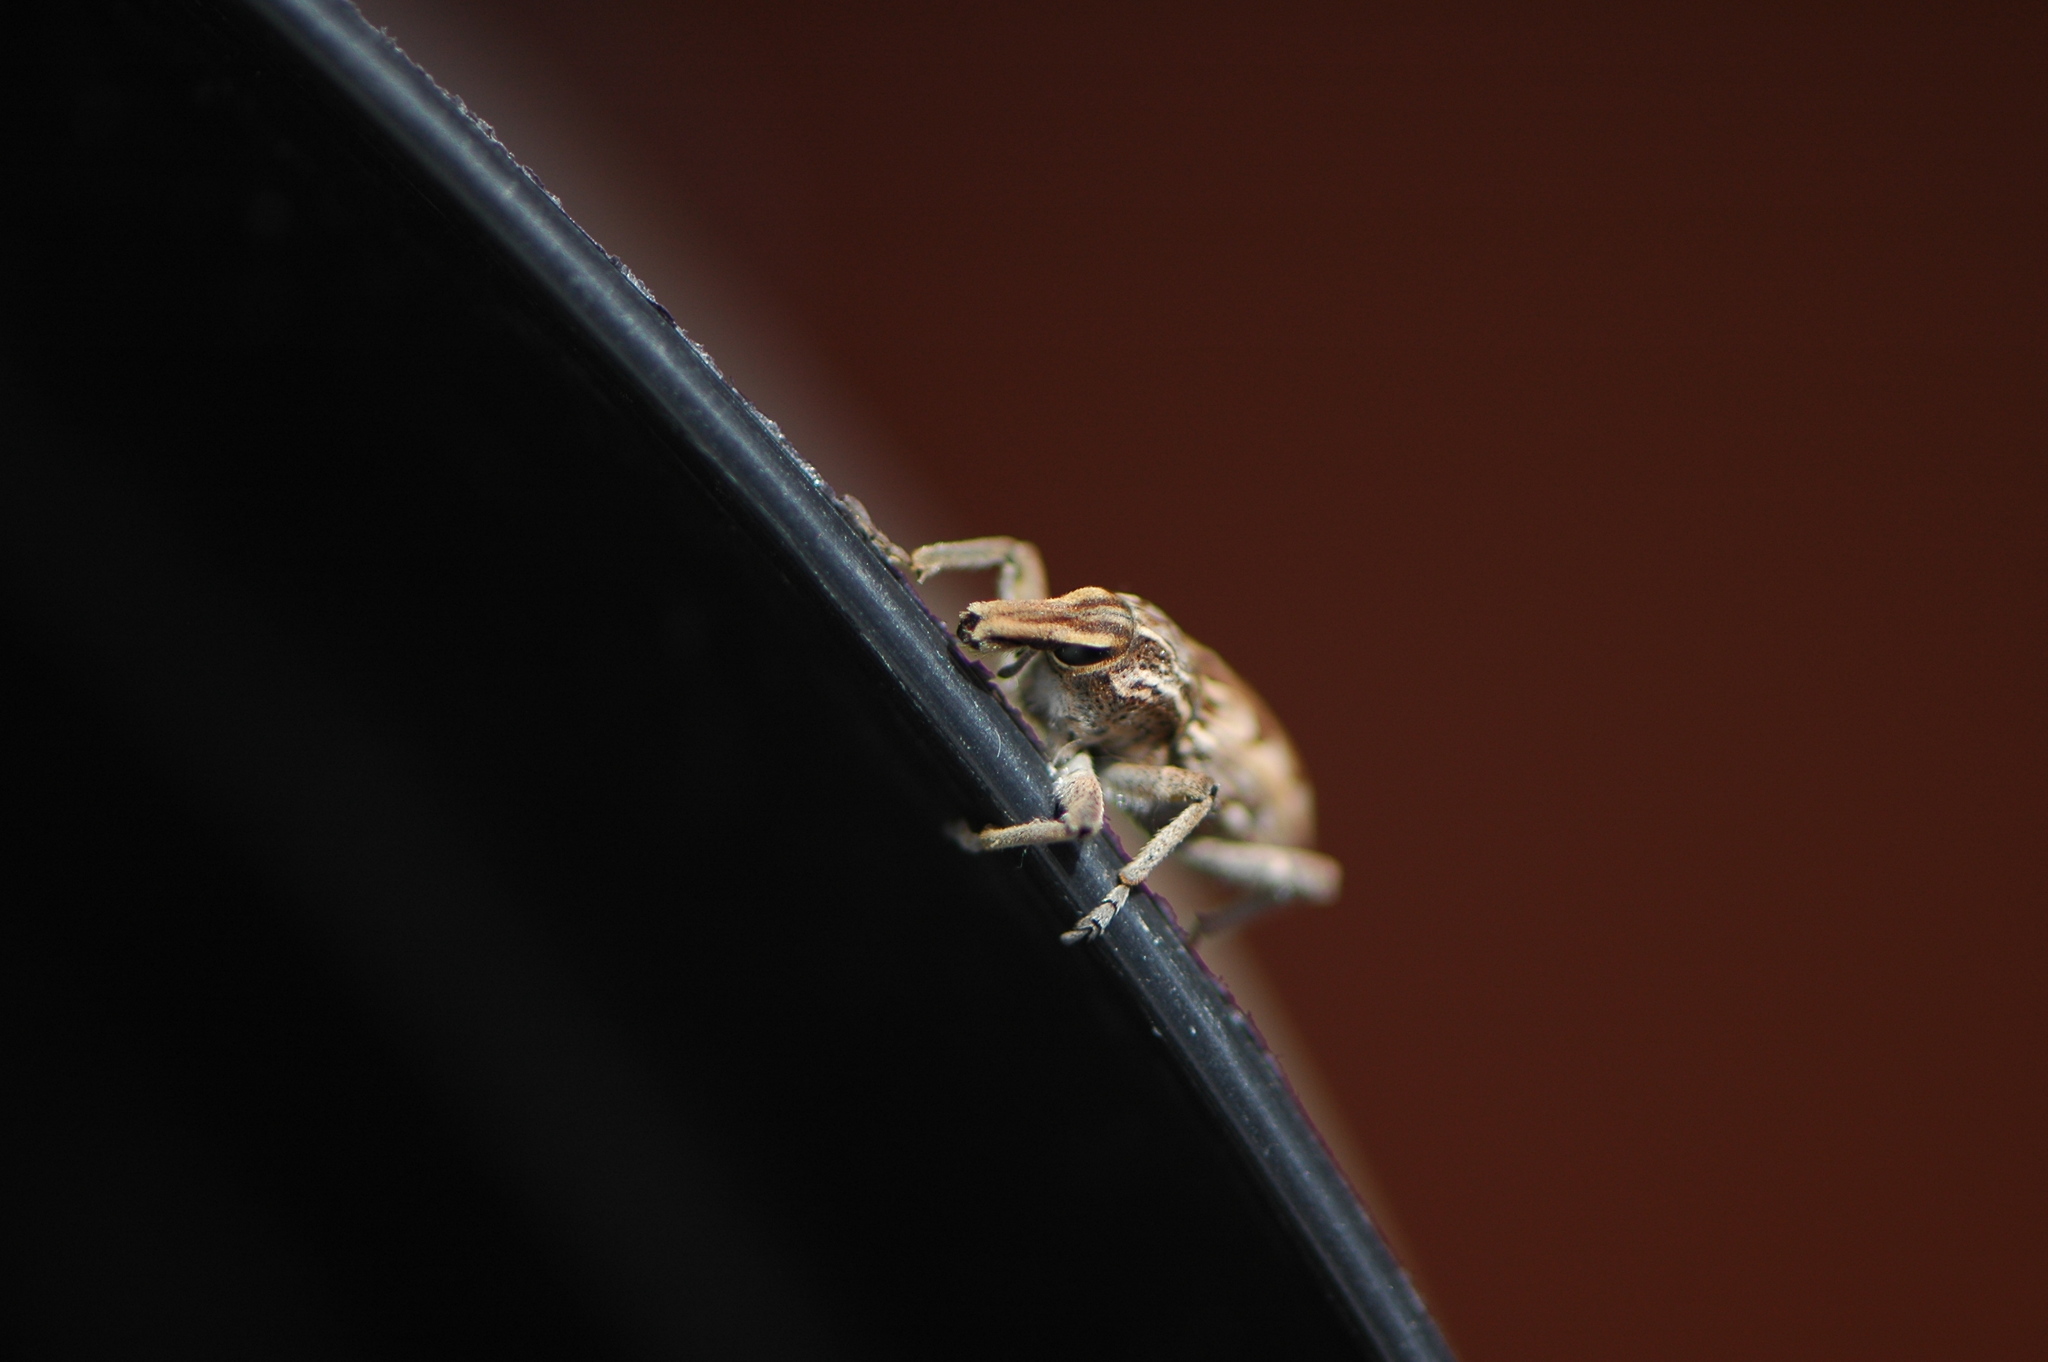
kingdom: Animalia
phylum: Arthropoda
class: Insecta
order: Coleoptera
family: Curculionidae
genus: Coniocleonus
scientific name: Coniocleonus excoriatus
